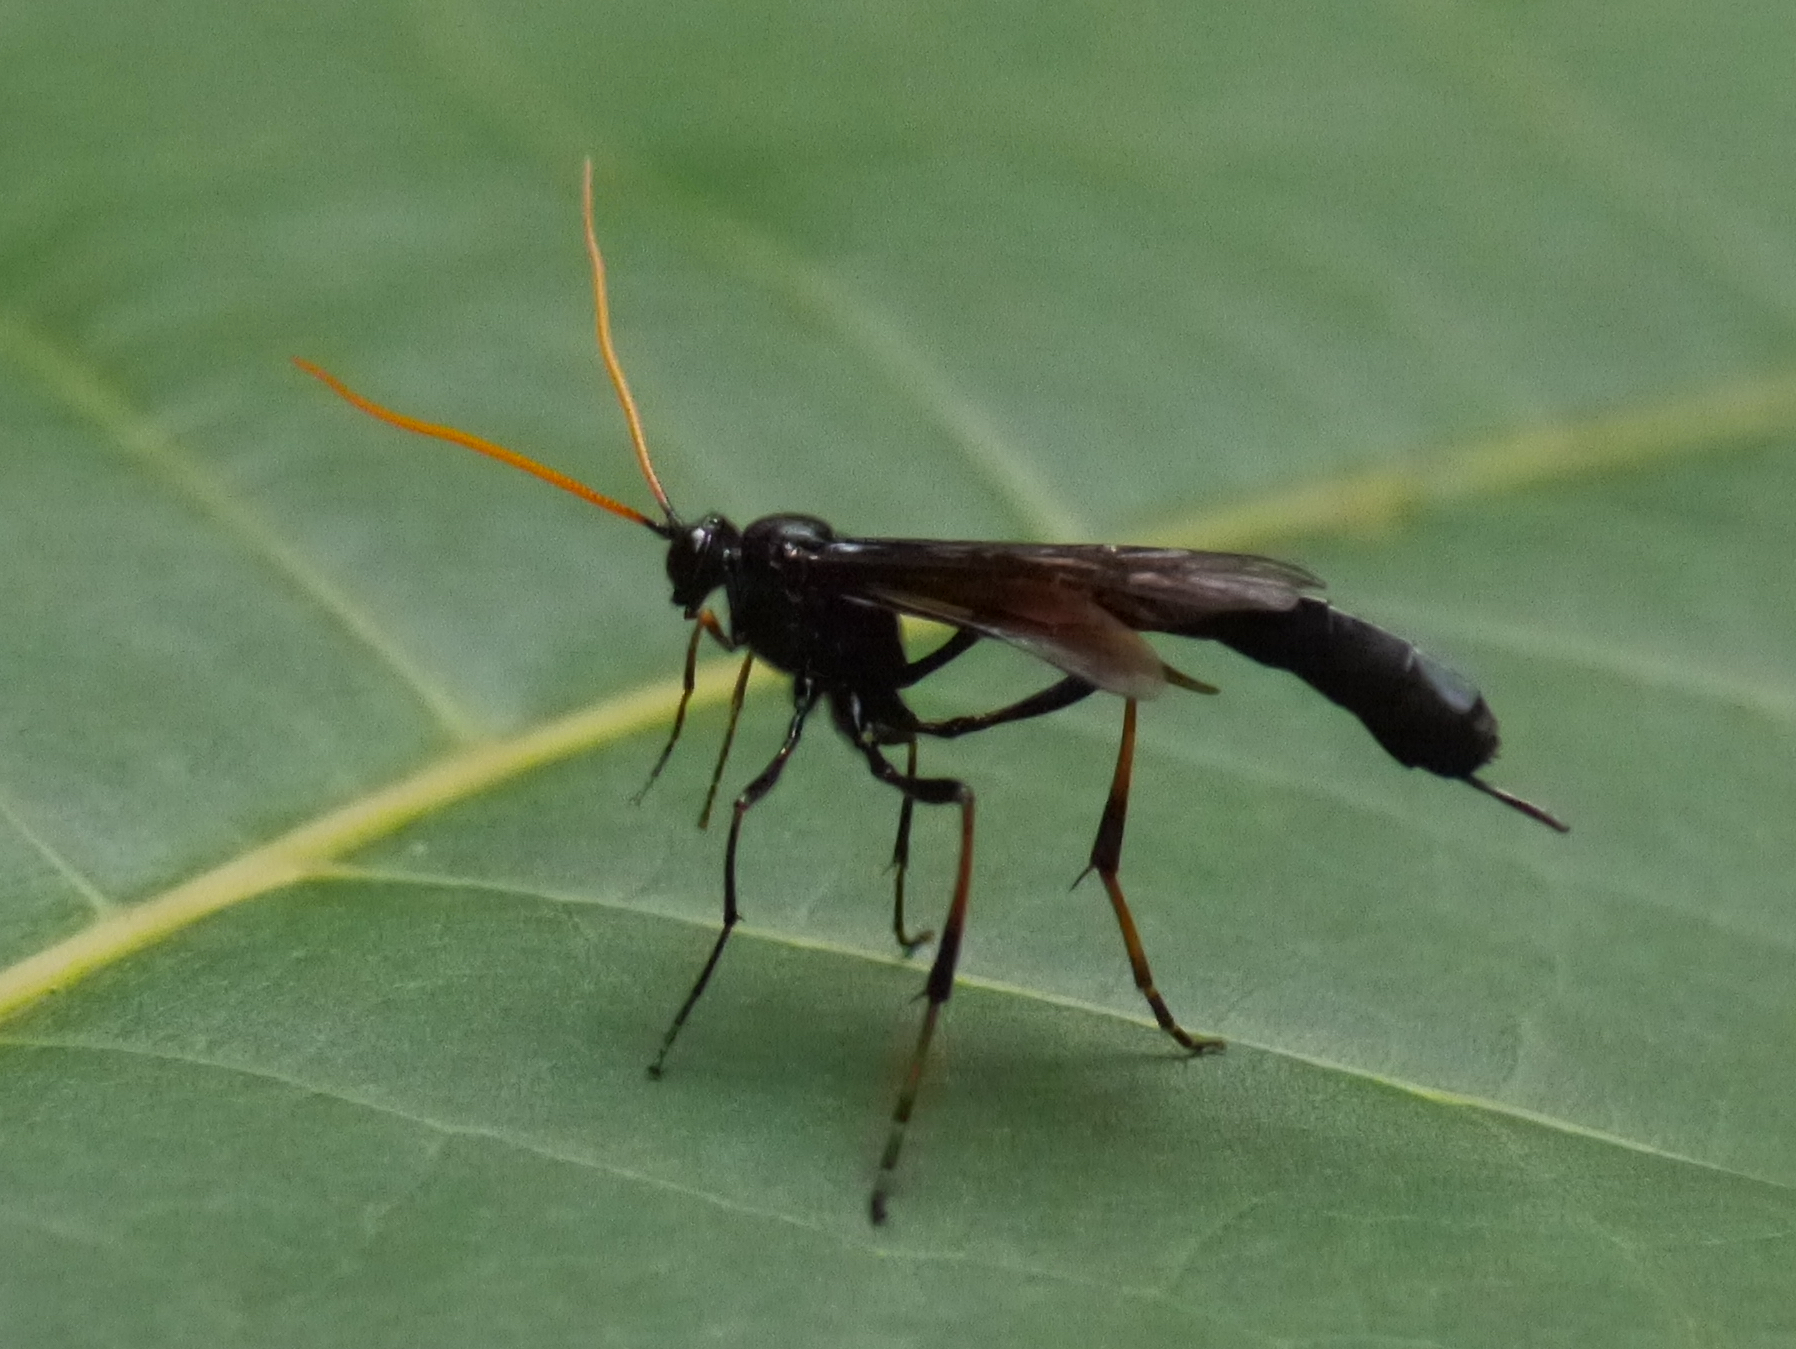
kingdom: Animalia
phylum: Arthropoda
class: Insecta
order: Hymenoptera
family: Ichneumonidae
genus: Therion
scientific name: Therion morio
